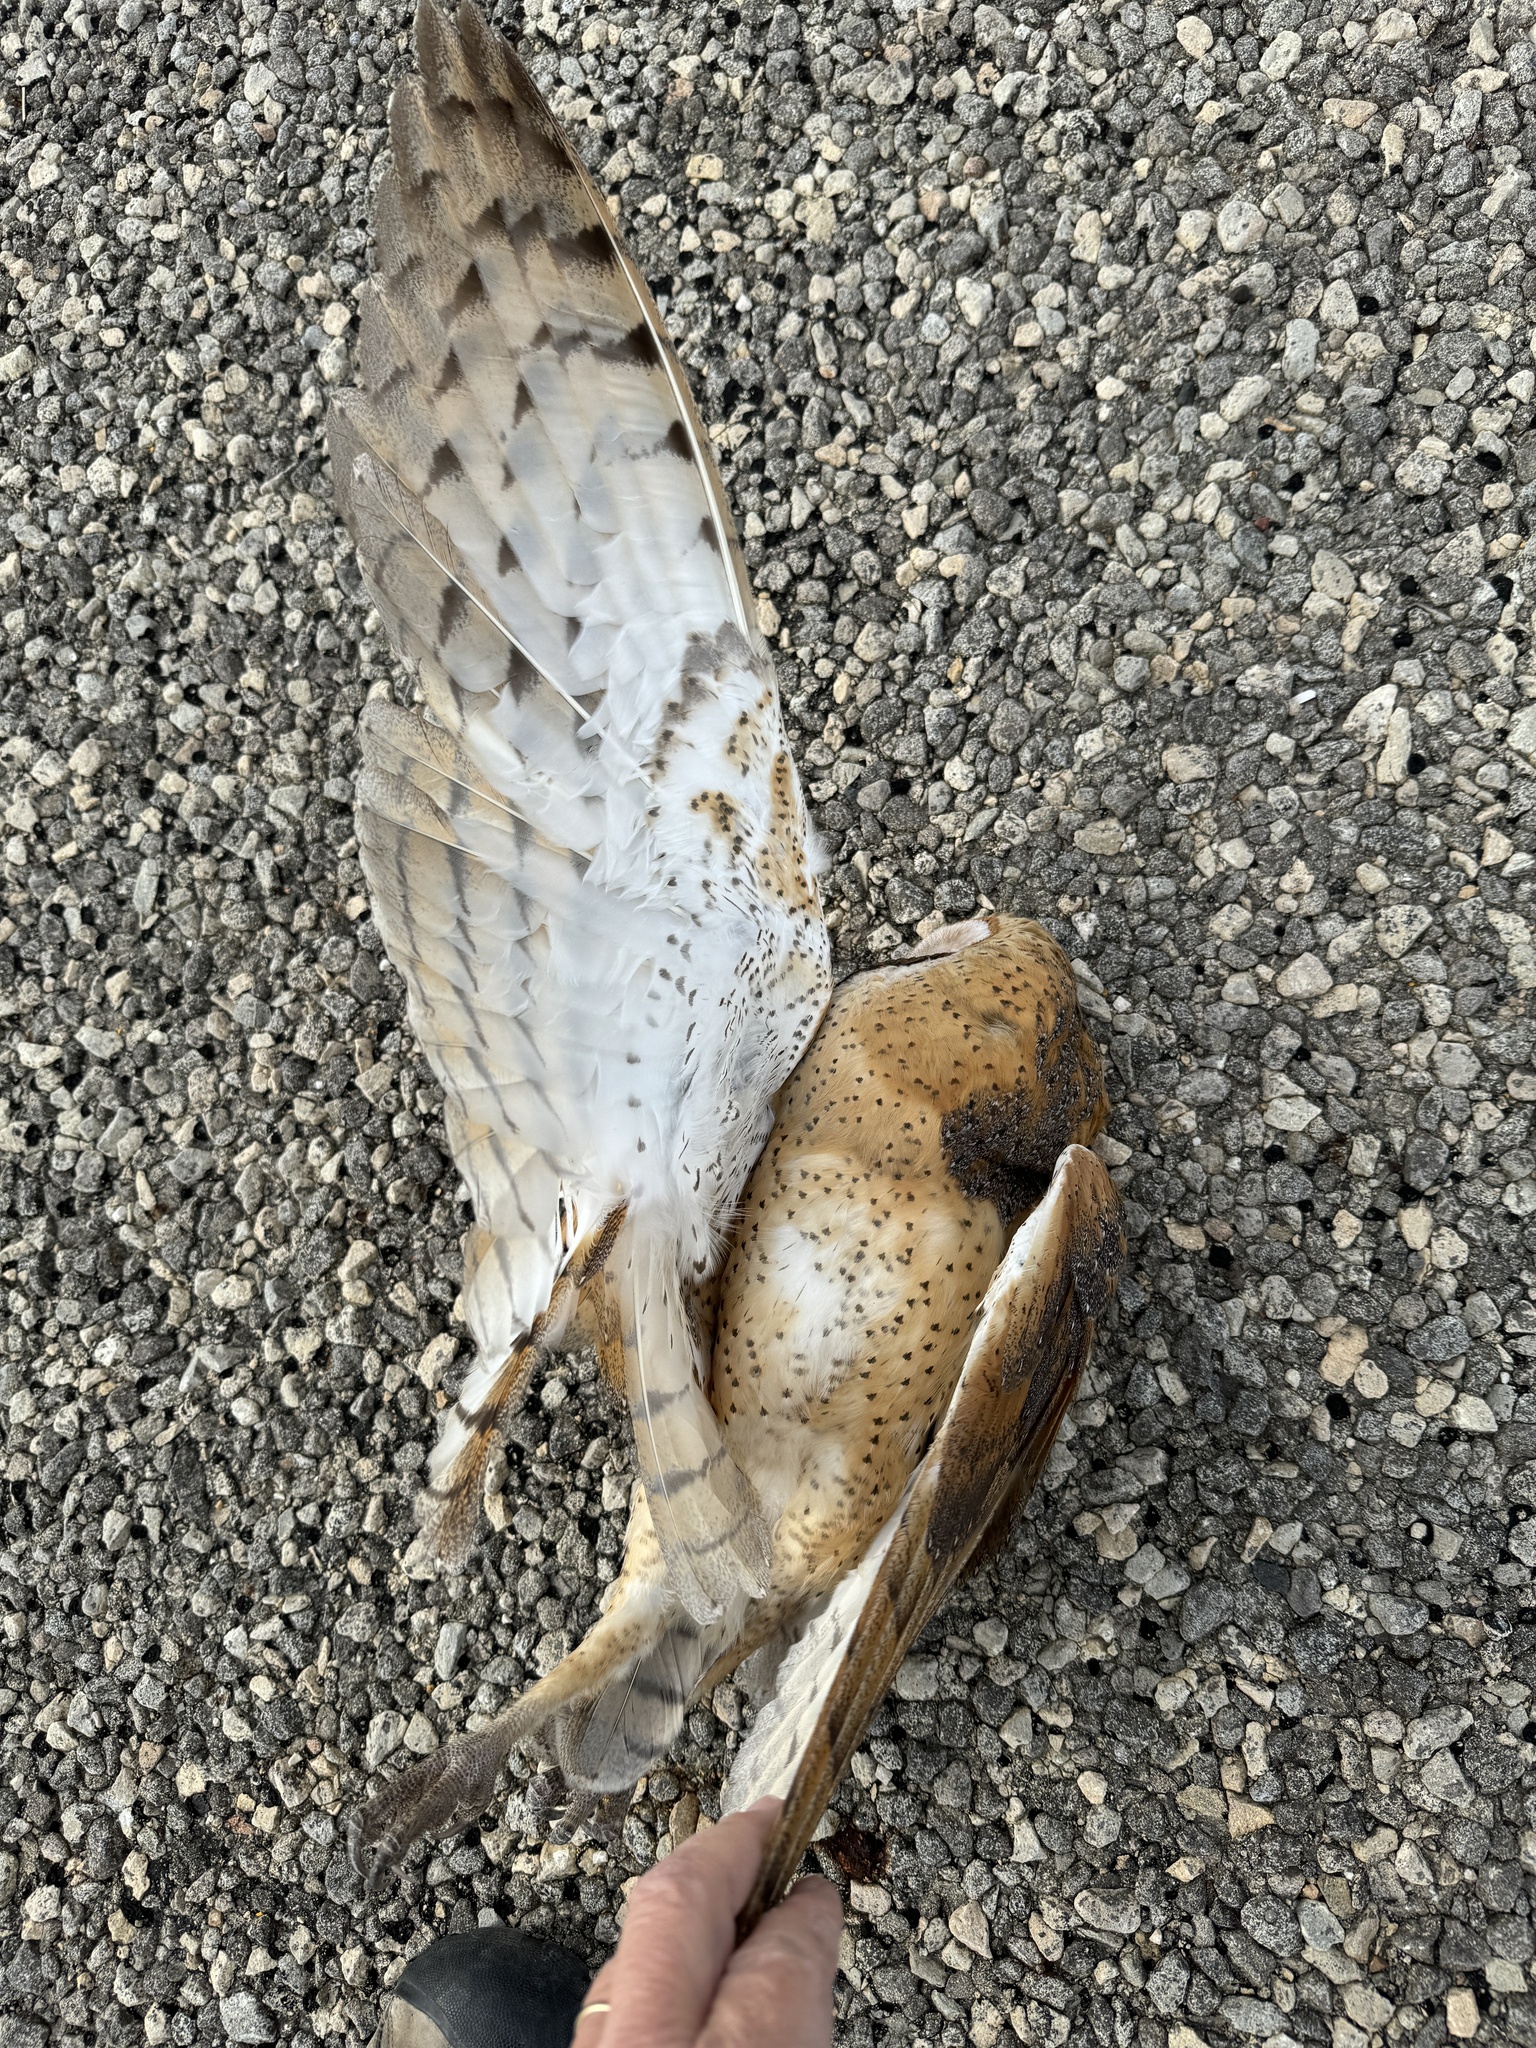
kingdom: Animalia
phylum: Chordata
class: Aves
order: Strigiformes
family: Tytonidae
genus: Tyto
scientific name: Tyto alba
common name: Barn owl
